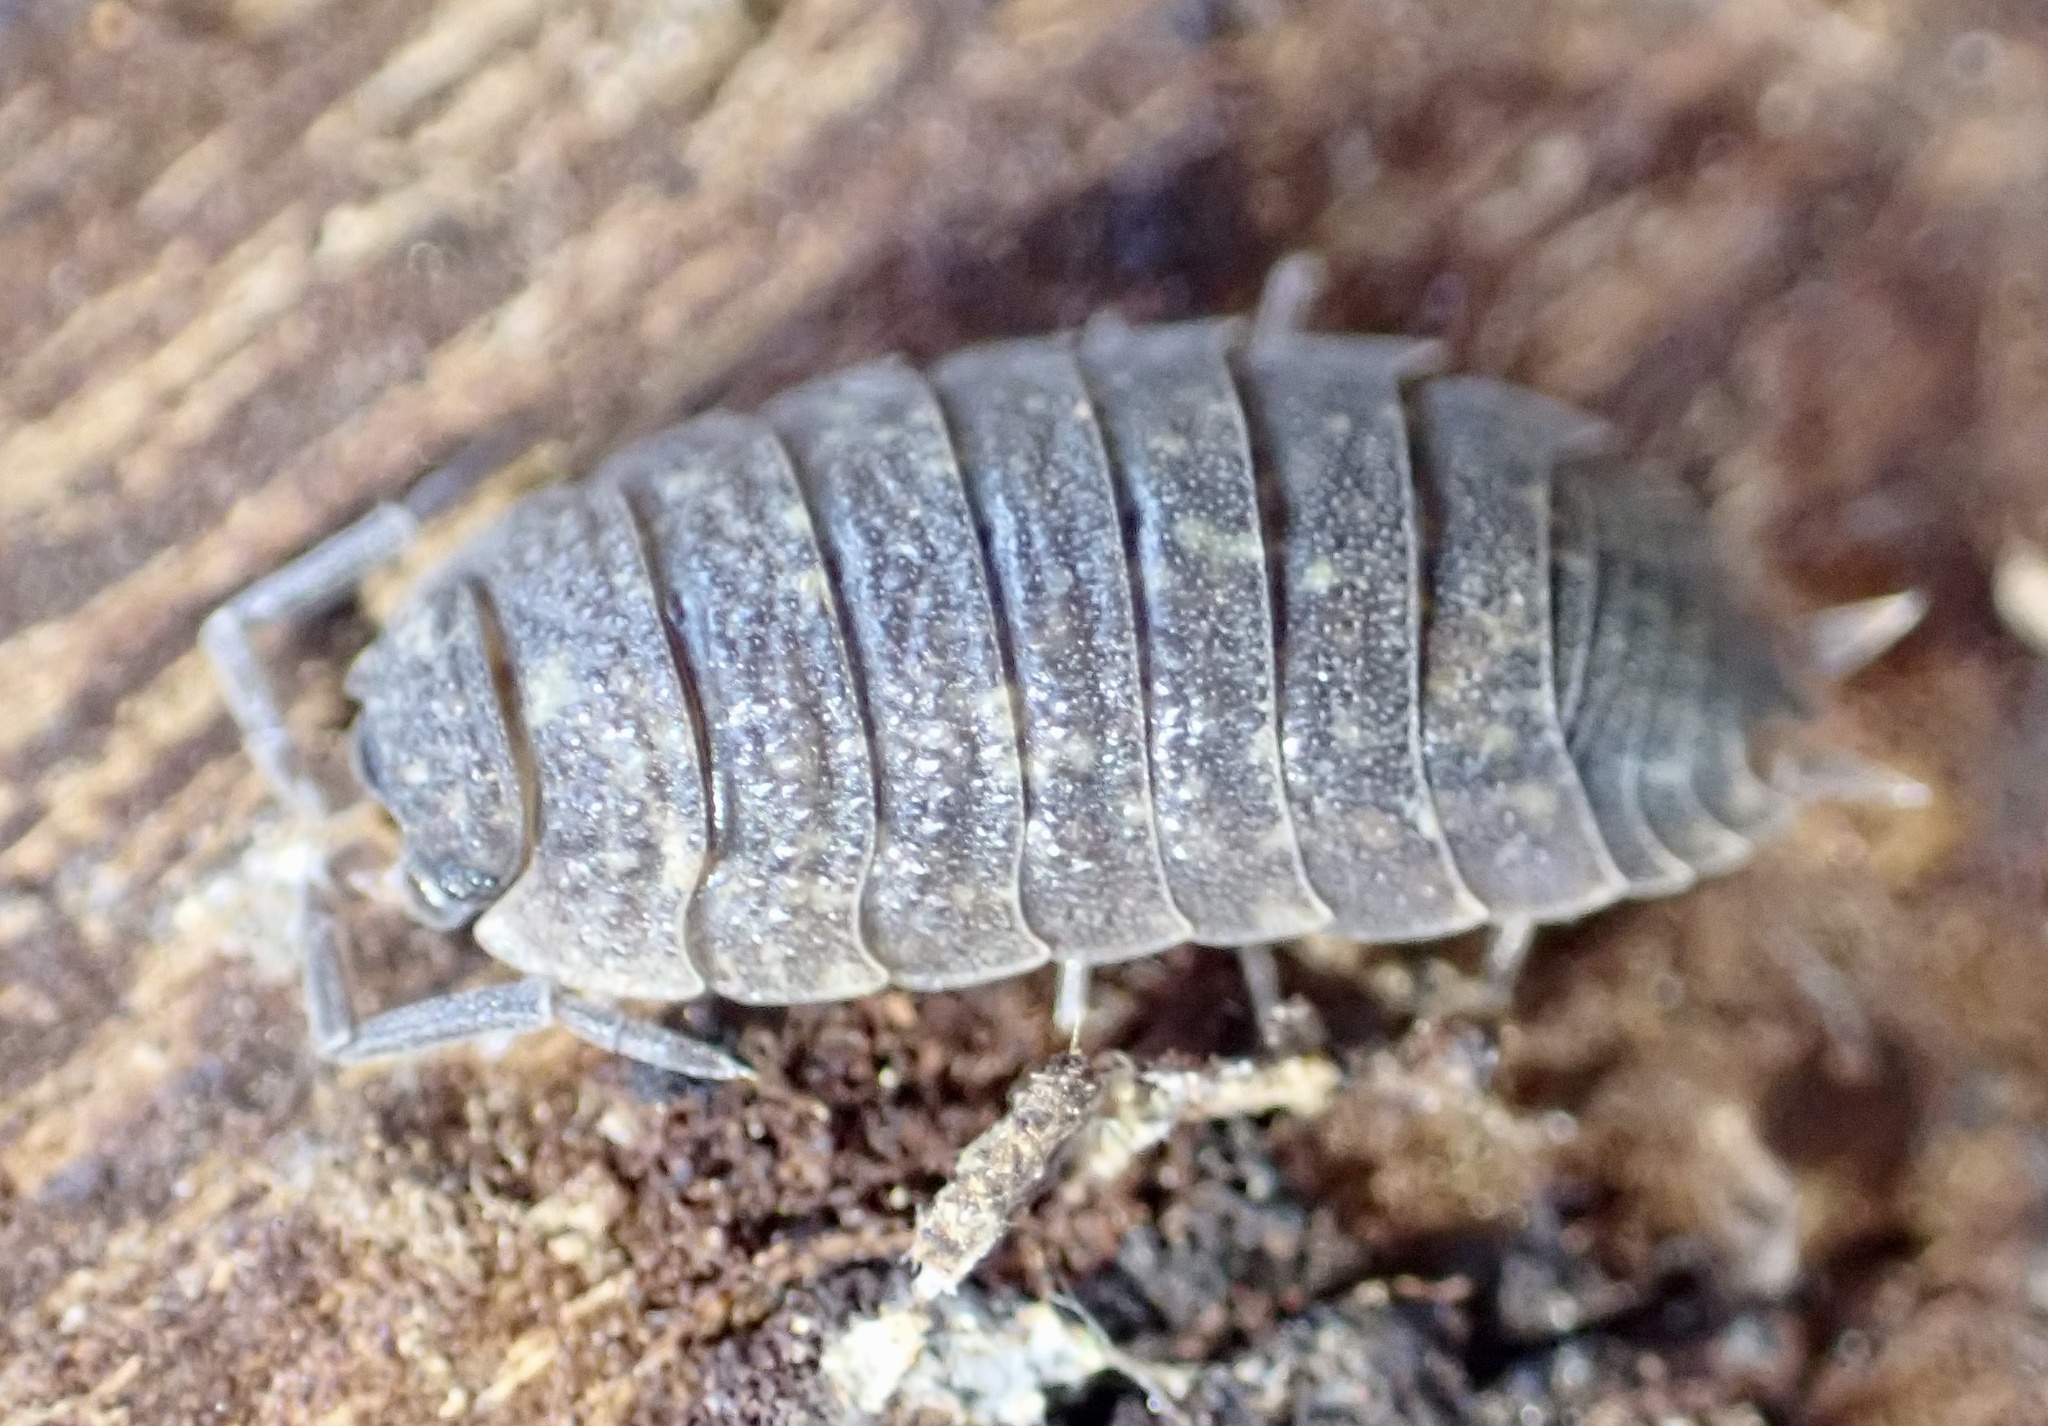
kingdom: Animalia
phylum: Arthropoda
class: Malacostraca
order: Isopoda
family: Porcellionidae
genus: Porcellio
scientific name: Porcellio scaber
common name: Common rough woodlouse
